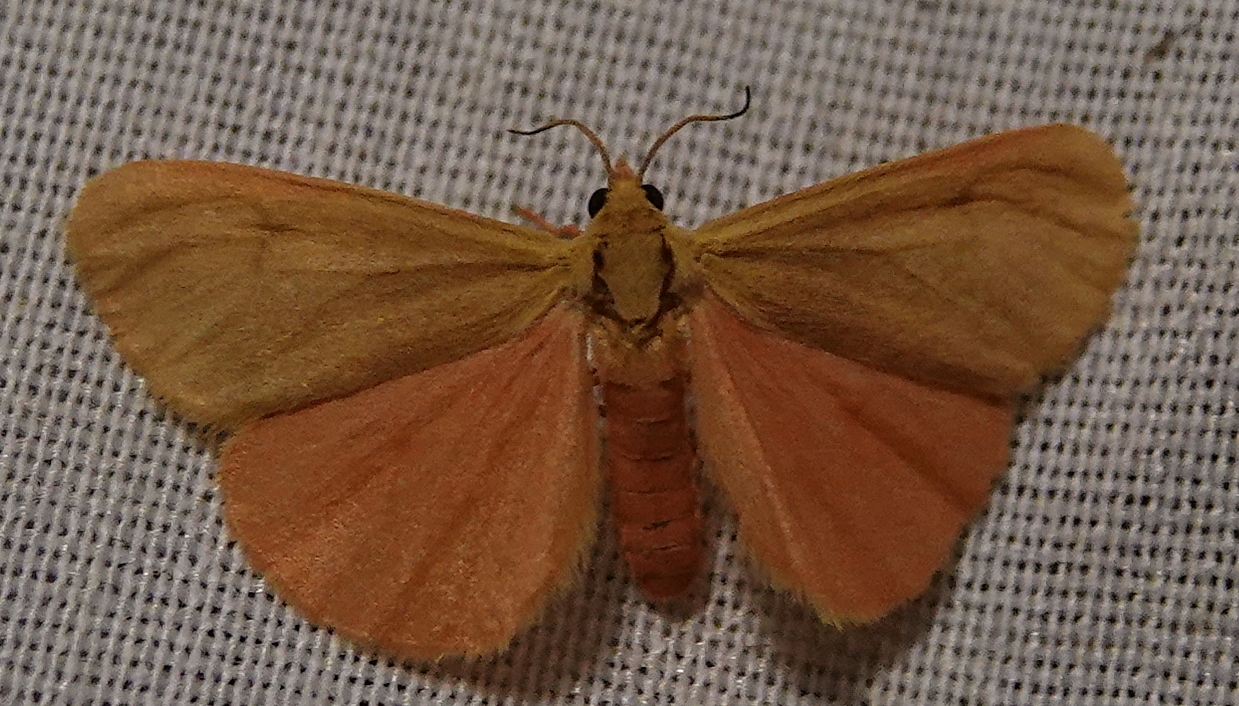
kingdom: Animalia
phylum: Arthropoda
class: Insecta
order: Lepidoptera
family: Erebidae
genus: Virbia
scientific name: Virbia immaculata
